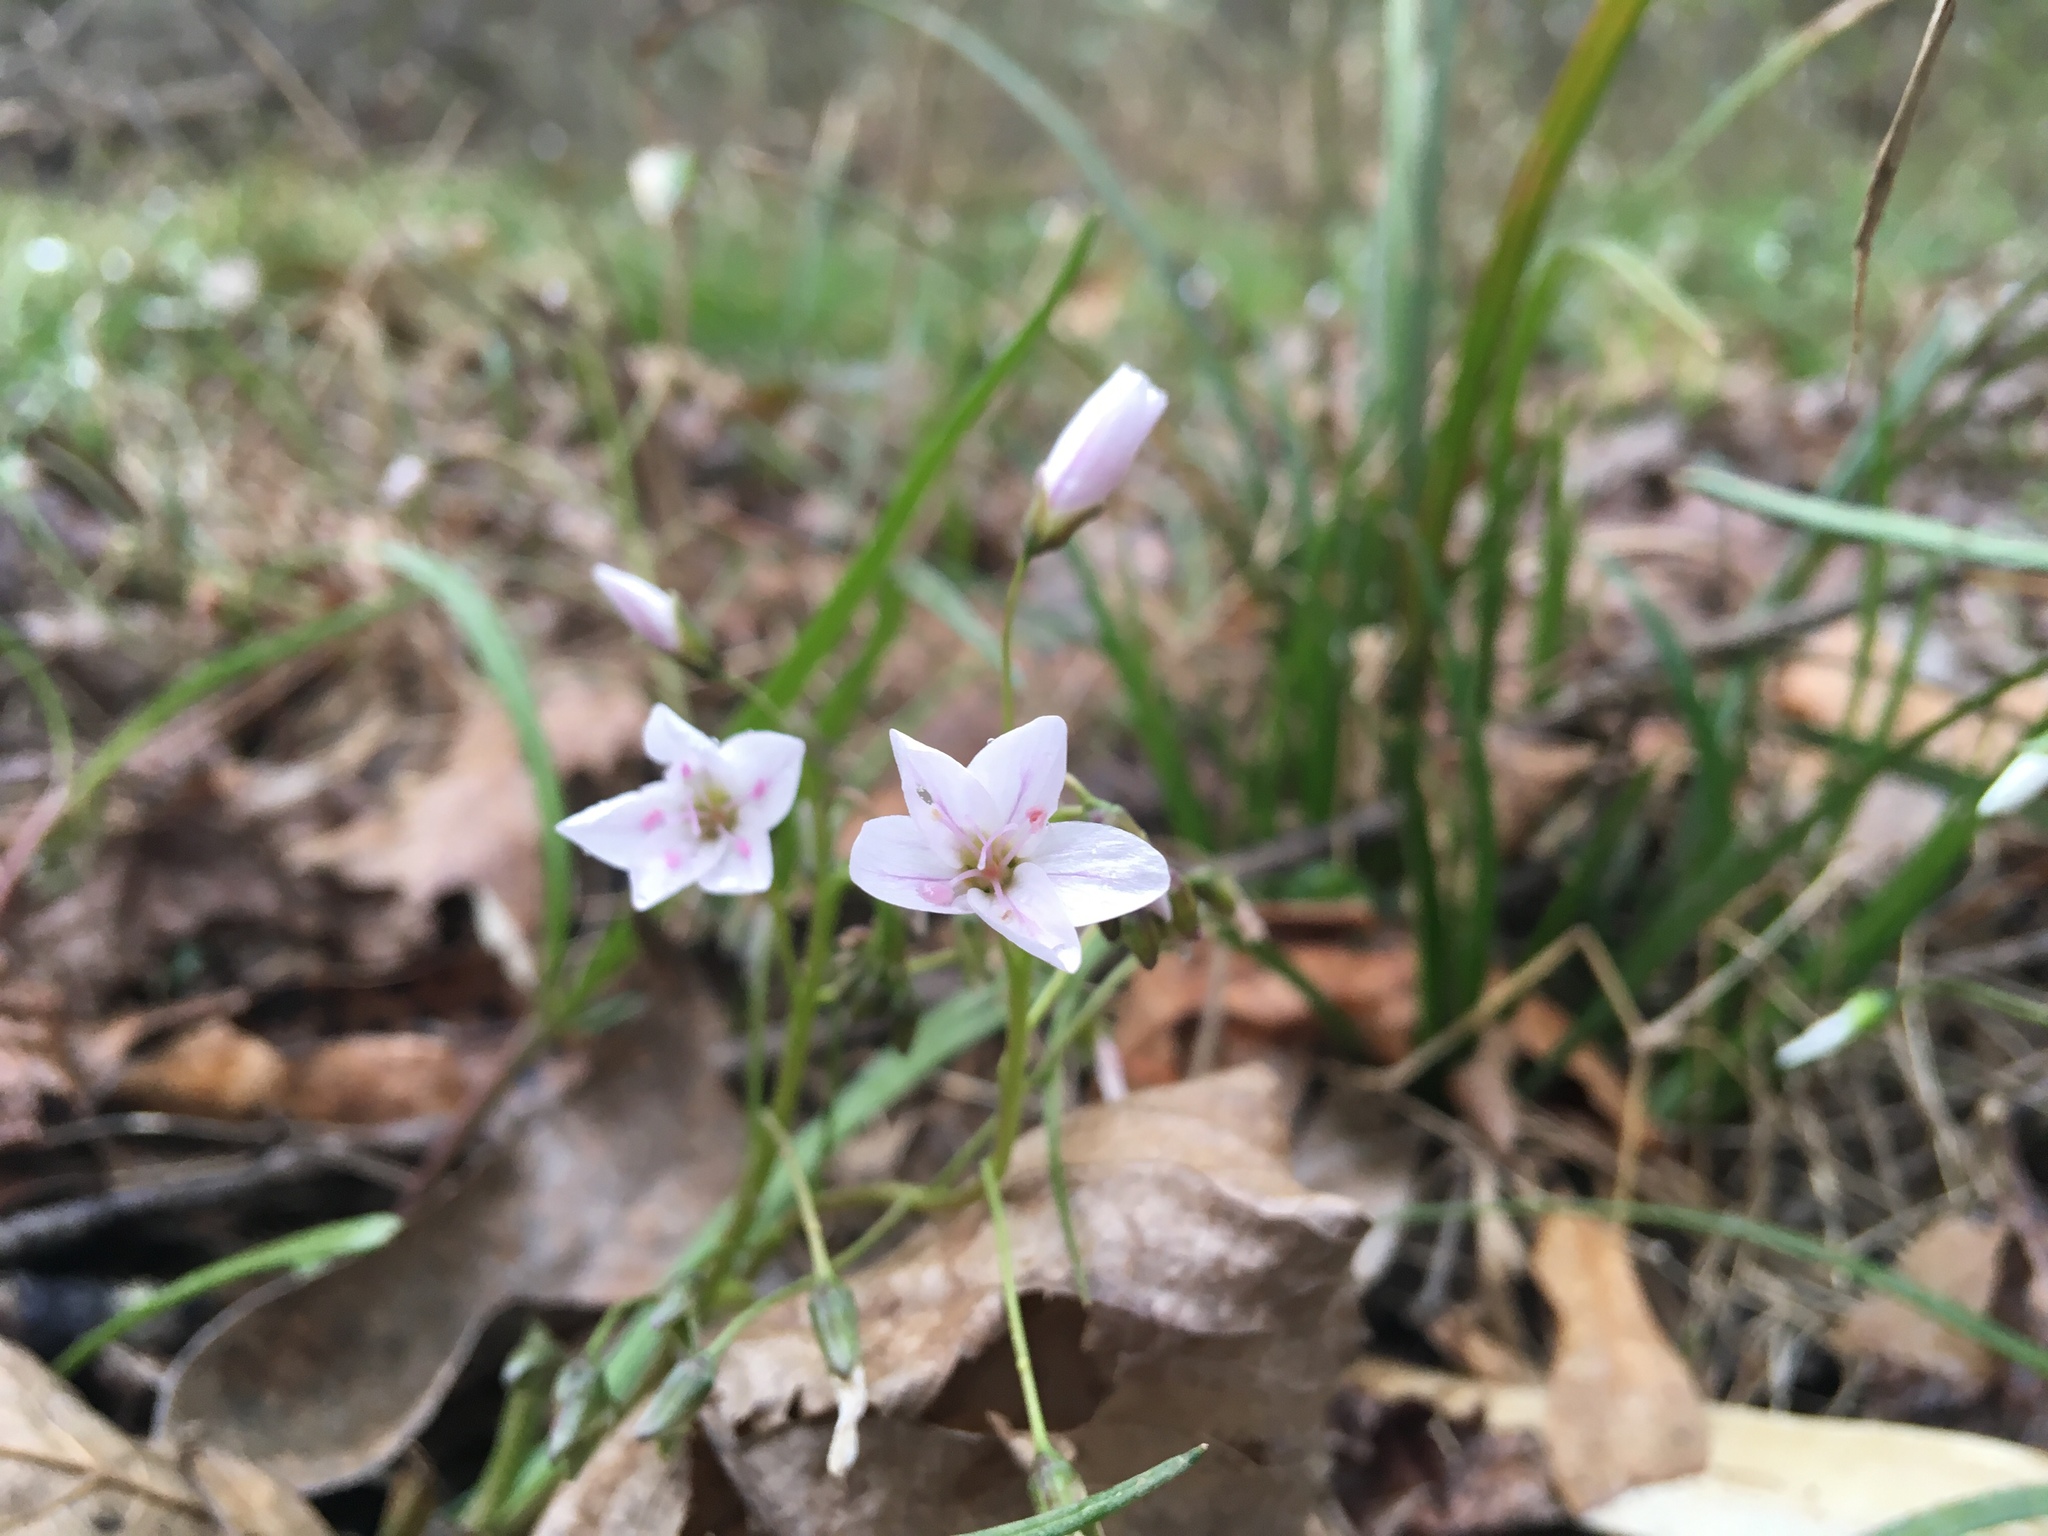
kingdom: Plantae
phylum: Tracheophyta
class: Magnoliopsida
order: Caryophyllales
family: Montiaceae
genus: Claytonia
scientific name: Claytonia virginica
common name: Virginia springbeauty
